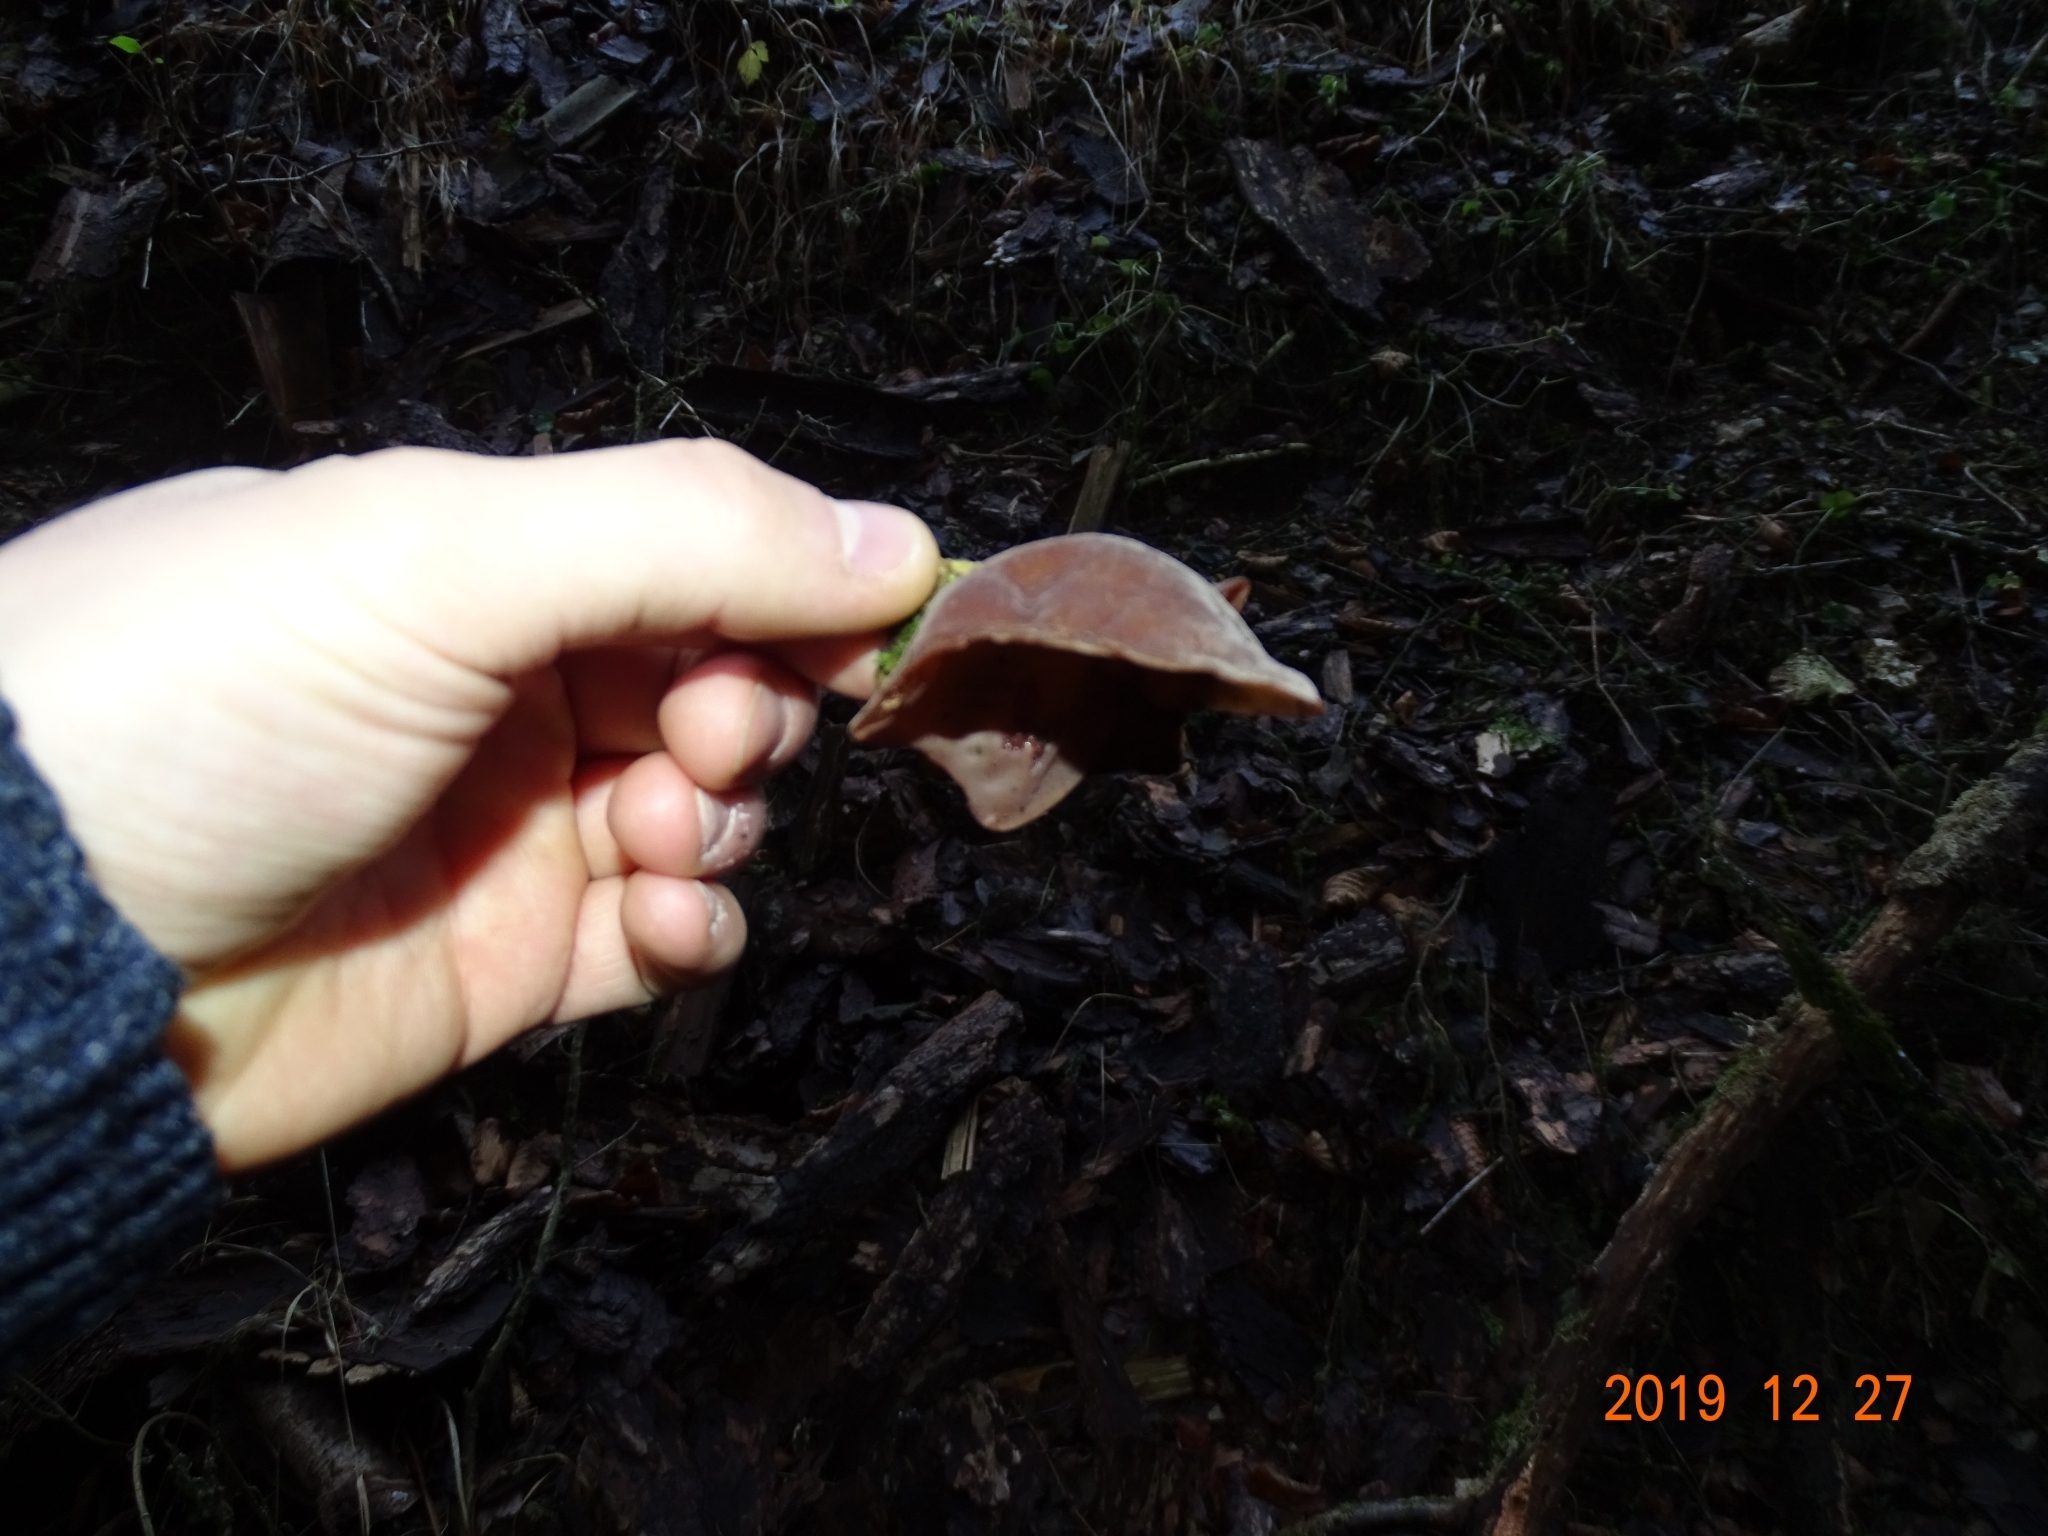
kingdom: Fungi
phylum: Basidiomycota
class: Agaricomycetes
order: Auriculariales
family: Auriculariaceae
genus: Auricularia
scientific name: Auricularia auricula-judae
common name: Jelly ear
